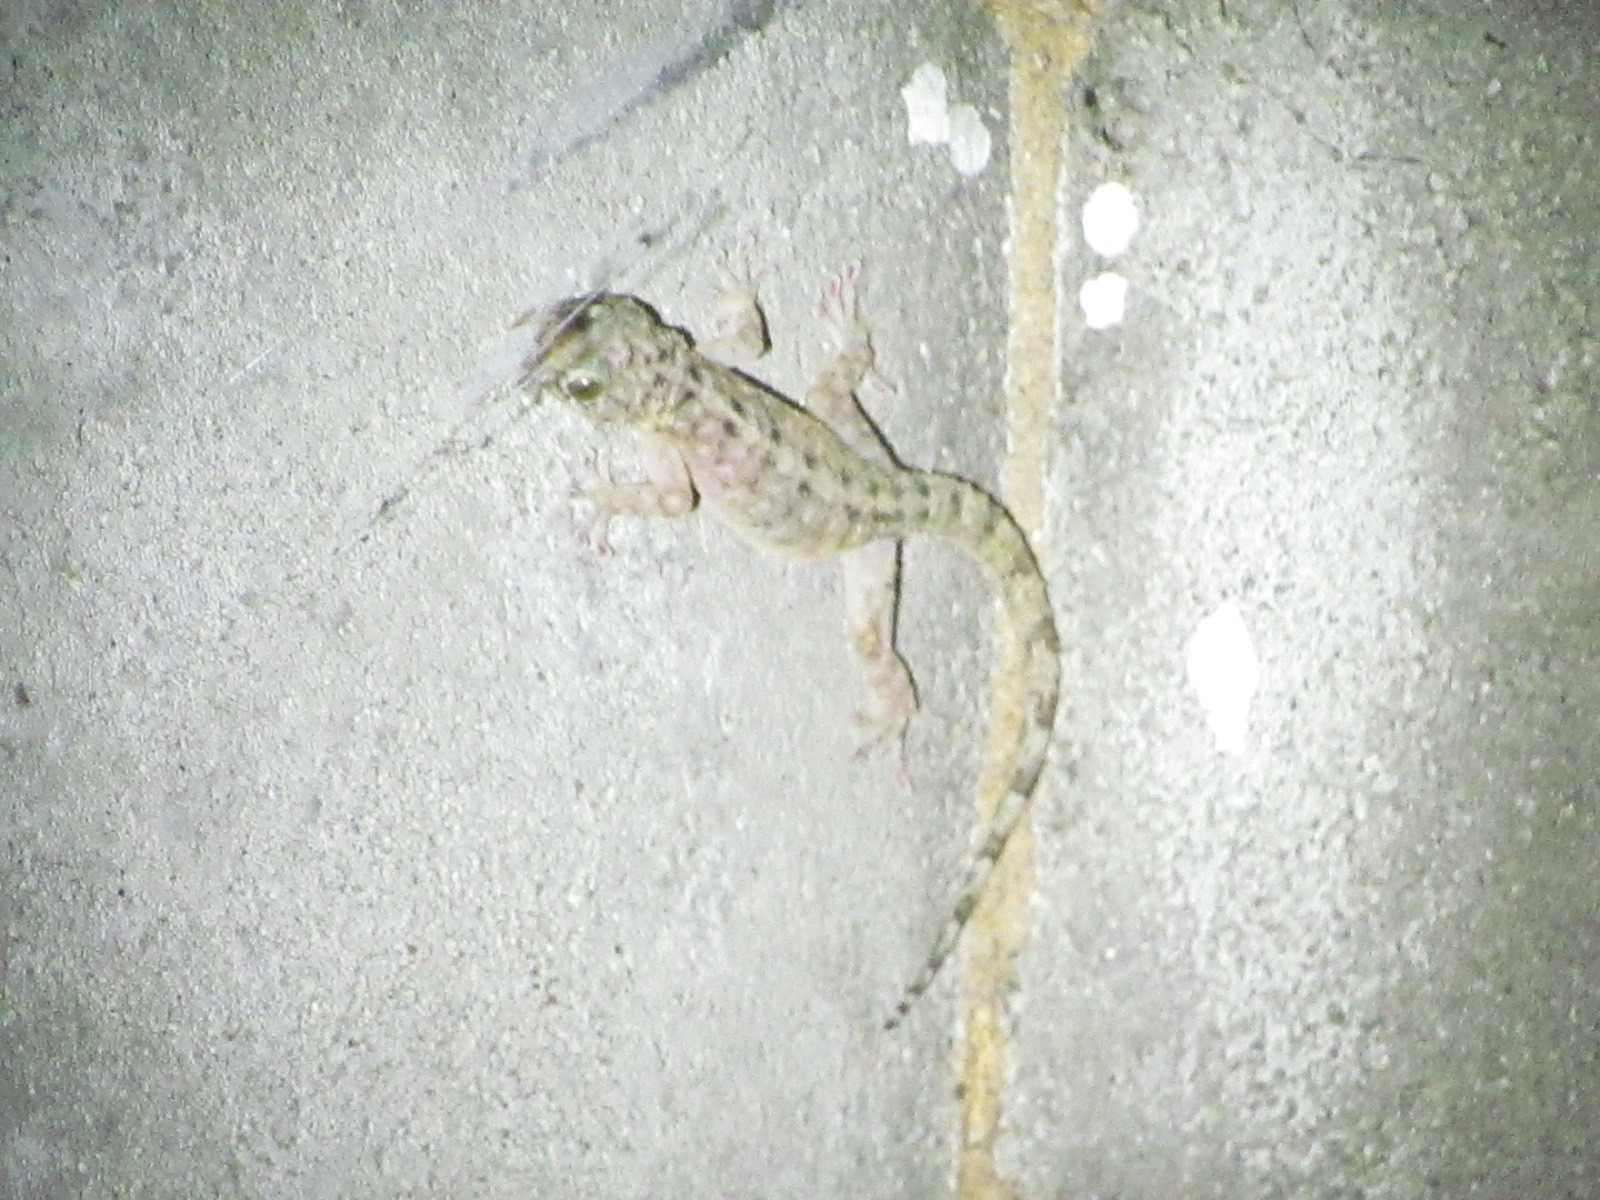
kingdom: Animalia
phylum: Chordata
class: Squamata
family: Gekkonidae
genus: Gekko
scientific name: Gekko kikuchii
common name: Botel gecko
